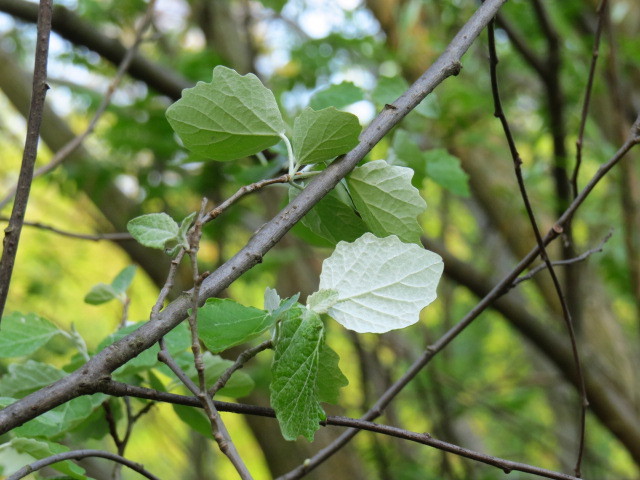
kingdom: Plantae
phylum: Tracheophyta
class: Magnoliopsida
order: Malpighiales
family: Salicaceae
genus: Populus
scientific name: Populus canescens
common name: Gray poplar
